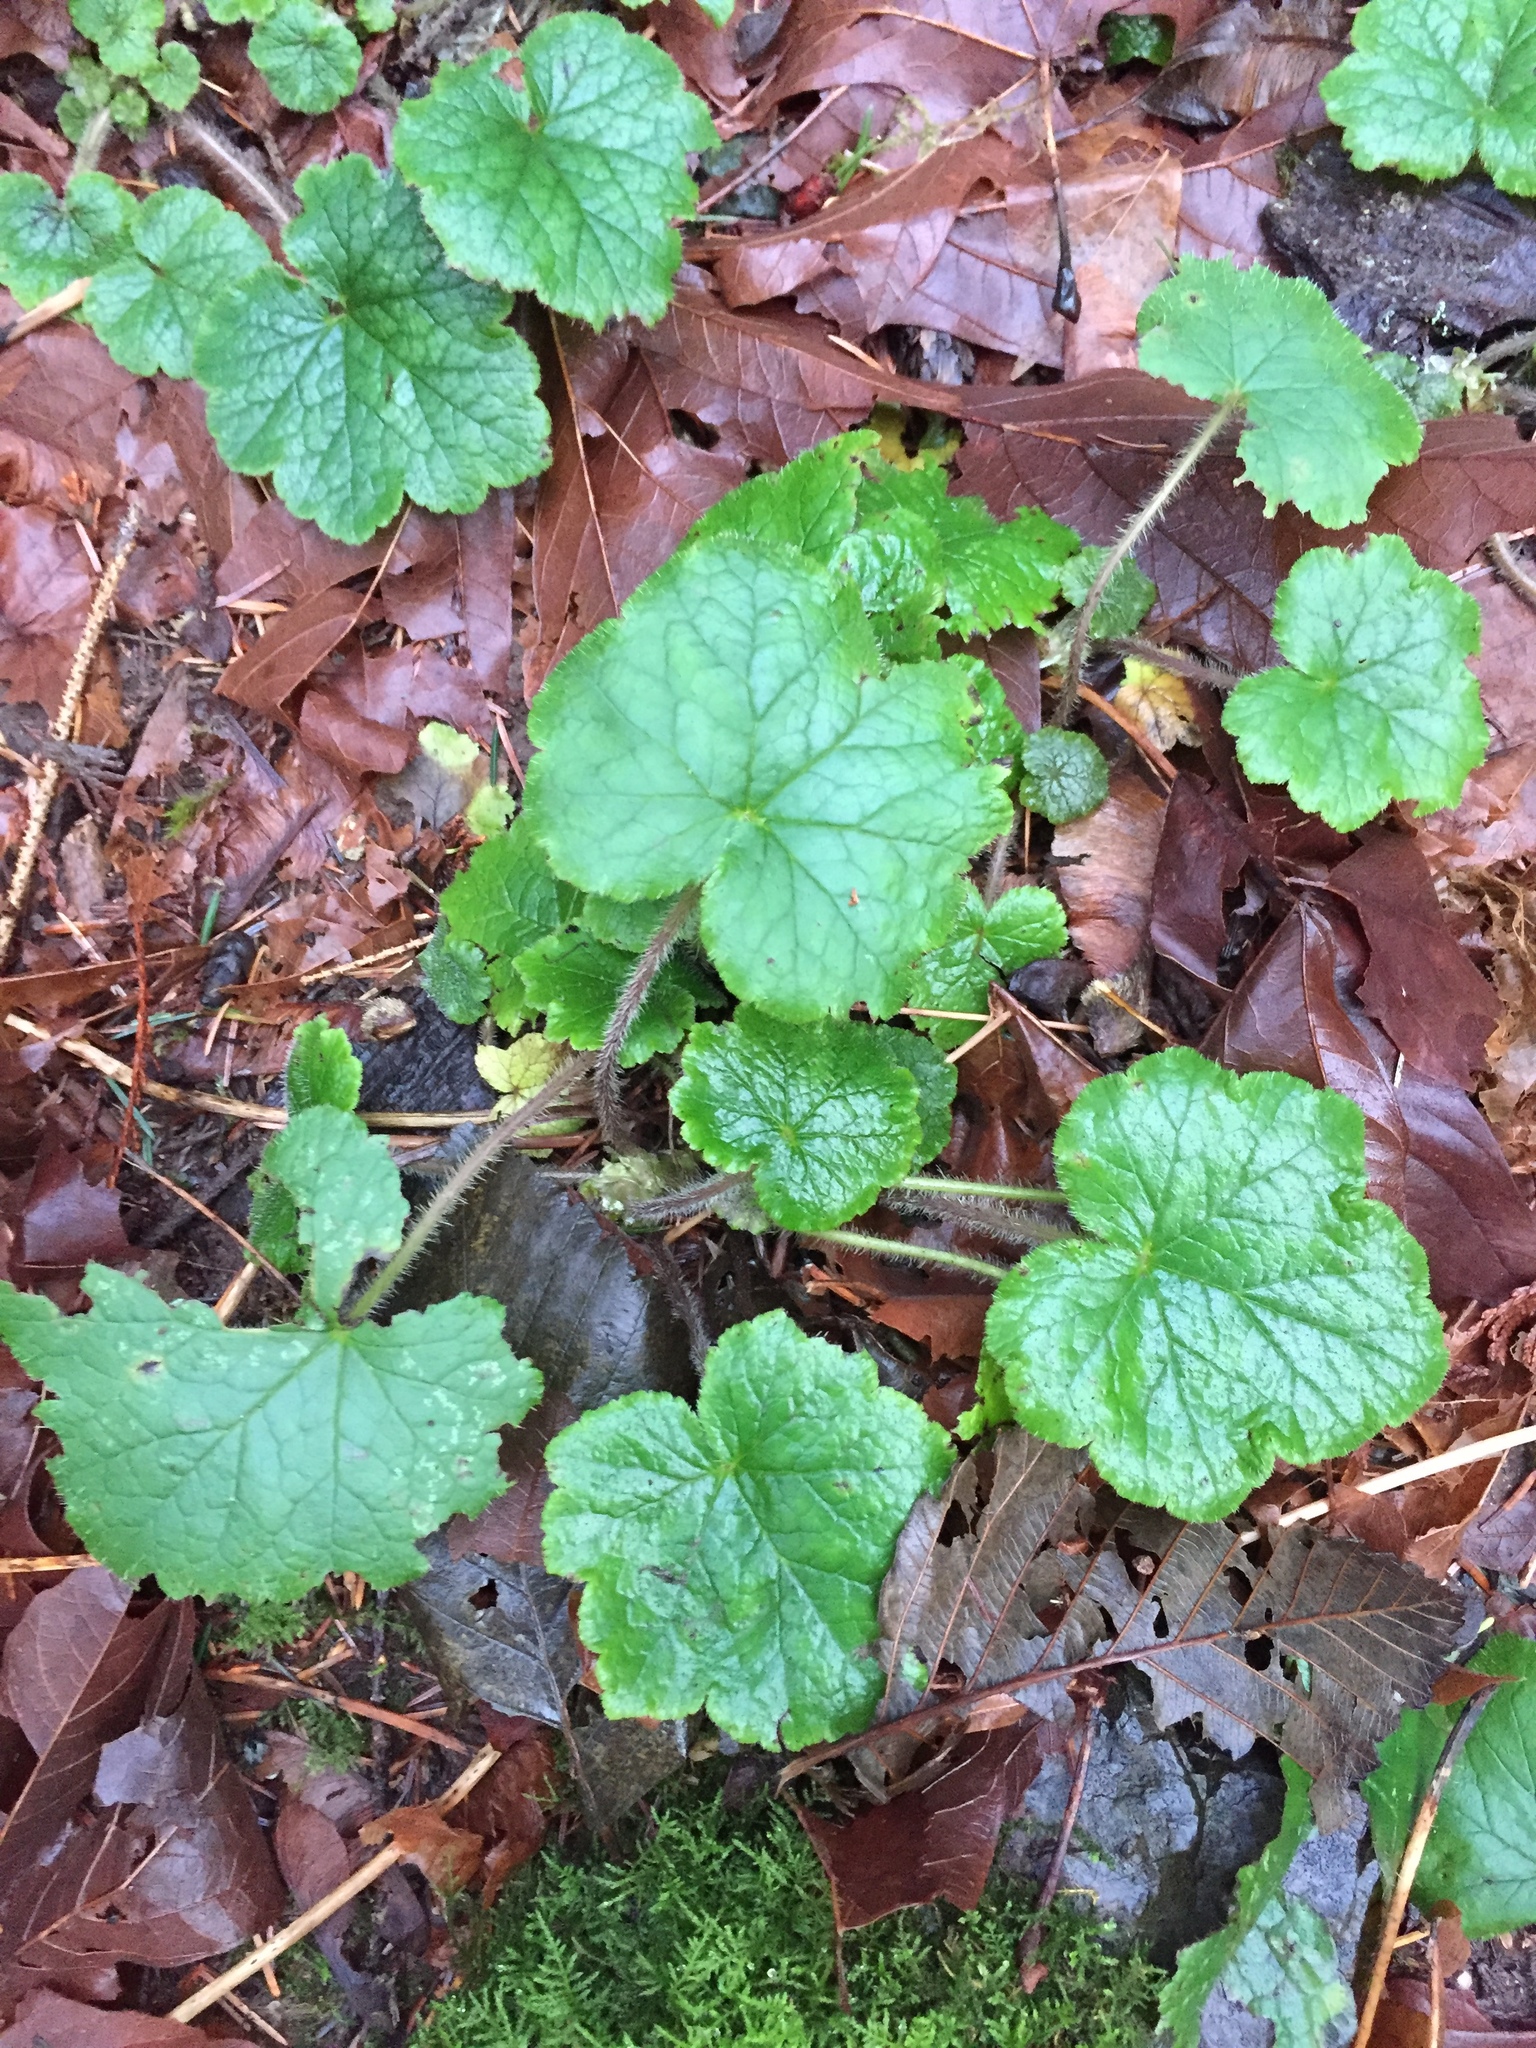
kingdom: Plantae
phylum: Tracheophyta
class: Magnoliopsida
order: Saxifragales
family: Saxifragaceae
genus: Tellima
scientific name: Tellima grandiflora
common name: Fringecups
